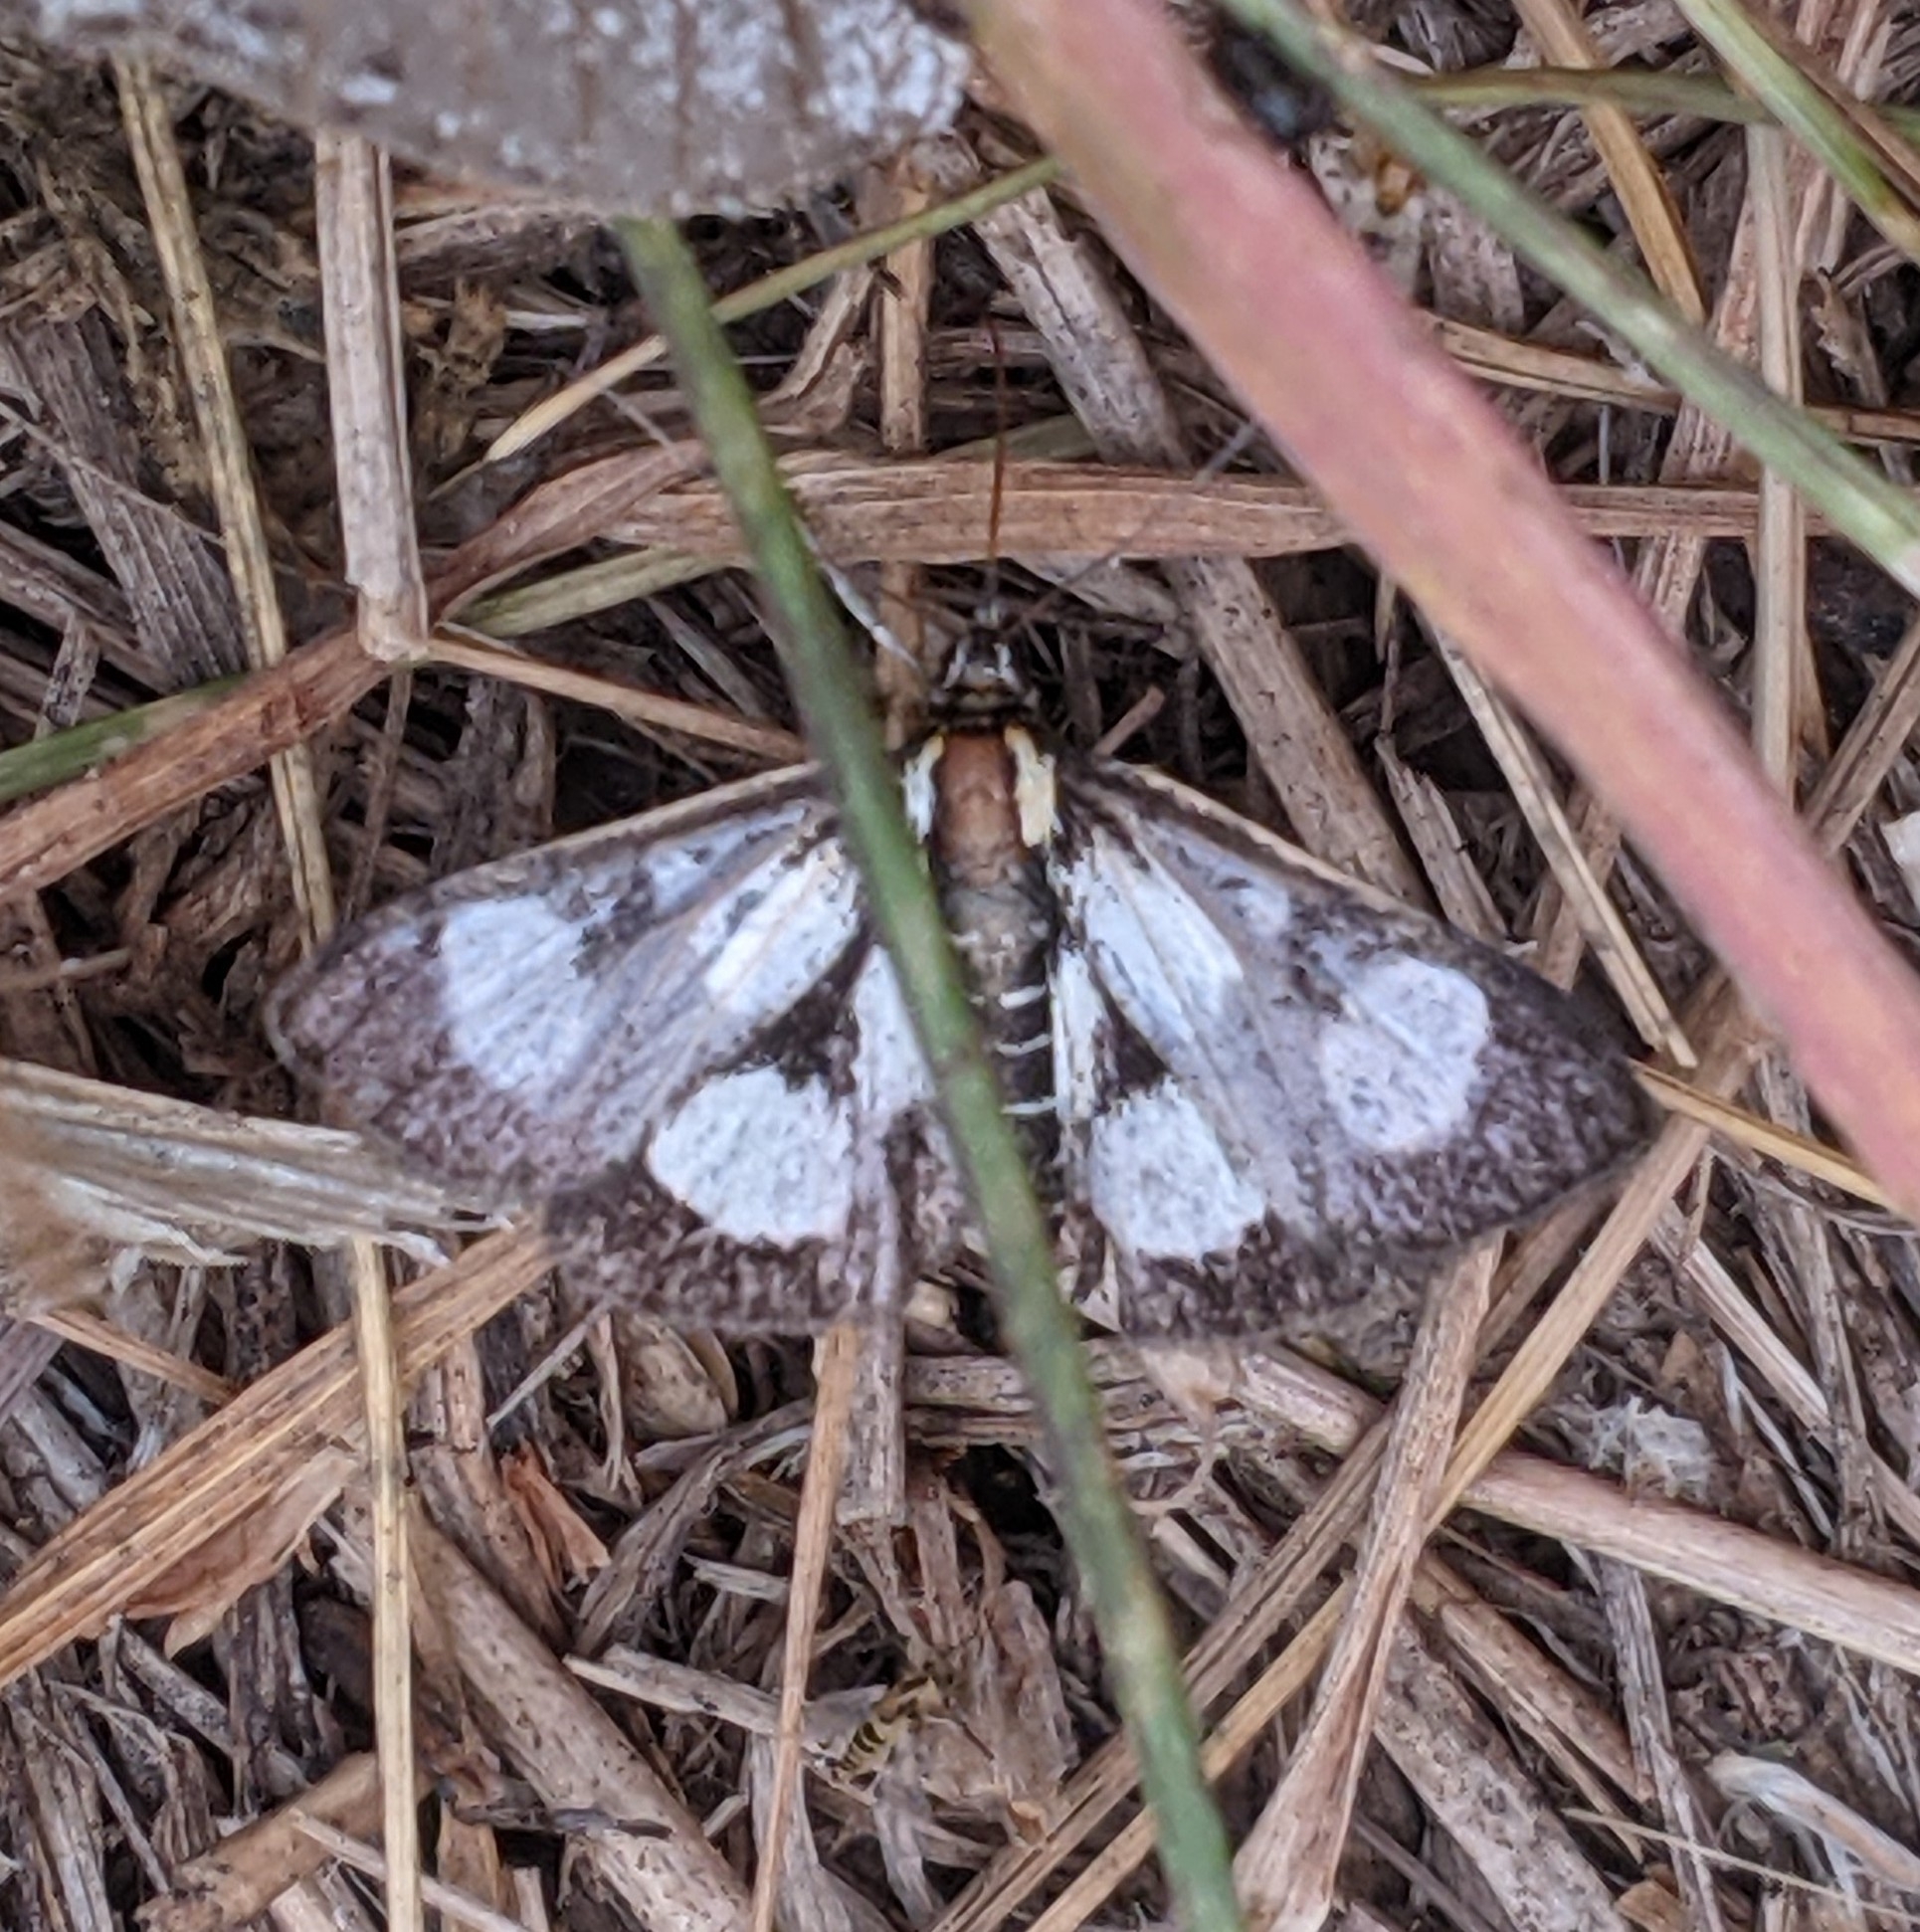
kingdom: Animalia
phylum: Arthropoda
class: Insecta
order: Lepidoptera
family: Crambidae
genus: Anania
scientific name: Anania funebris
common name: White-spotted sable moth
